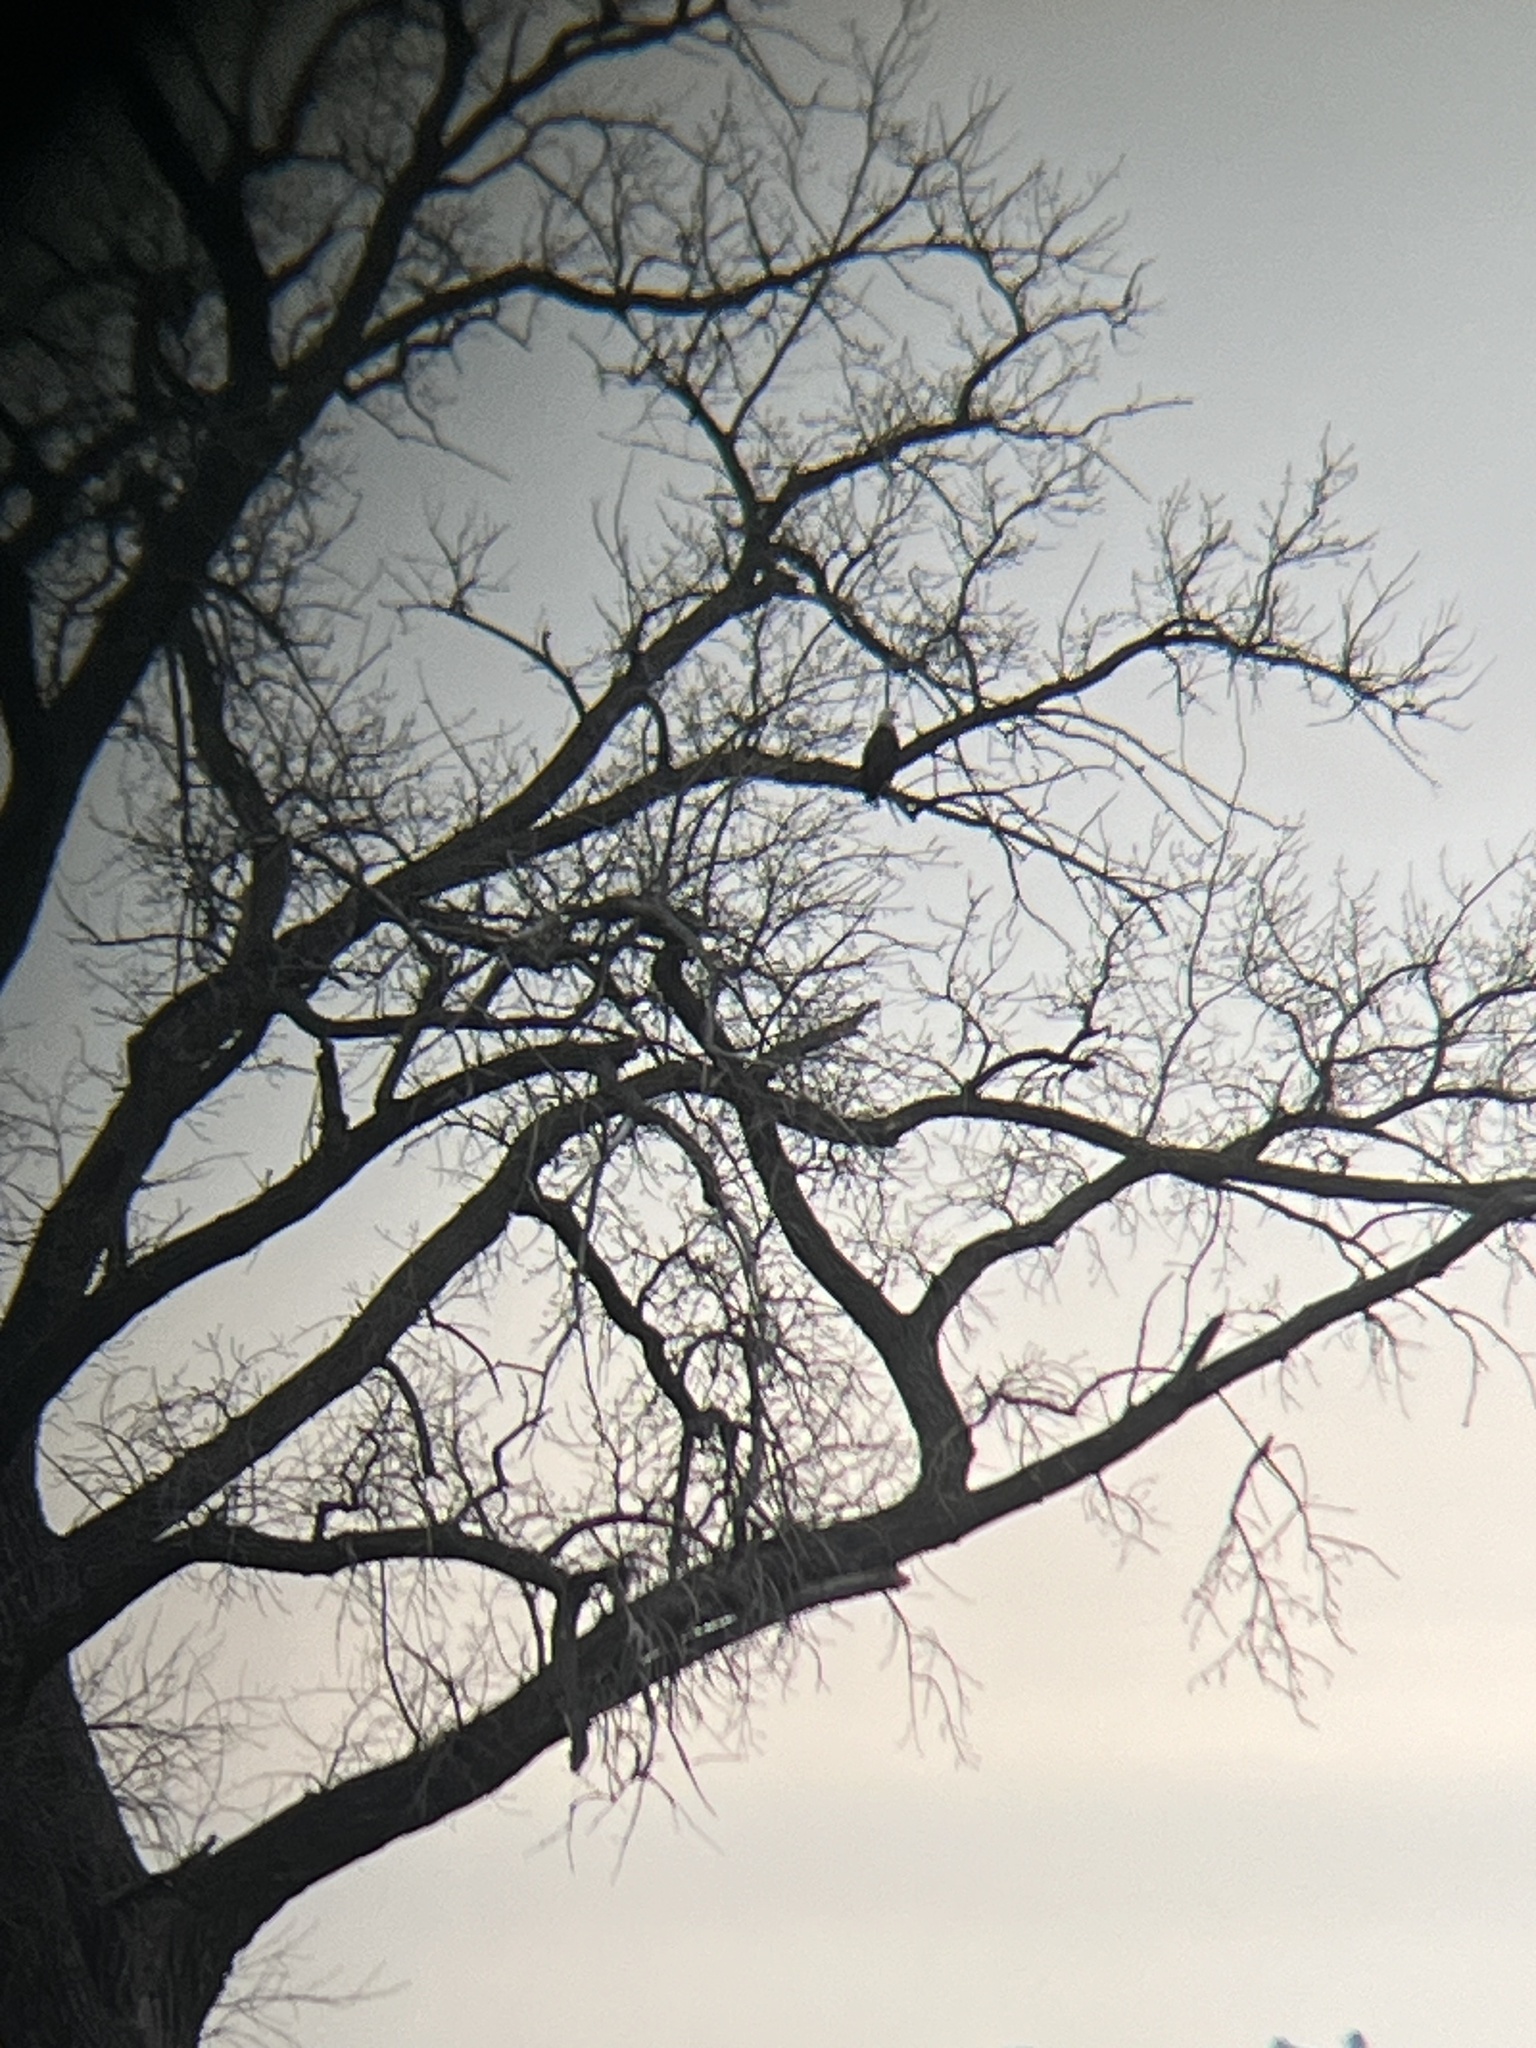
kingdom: Animalia
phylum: Chordata
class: Aves
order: Accipitriformes
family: Accipitridae
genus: Haliaeetus
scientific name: Haliaeetus leucocephalus
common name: Bald eagle
